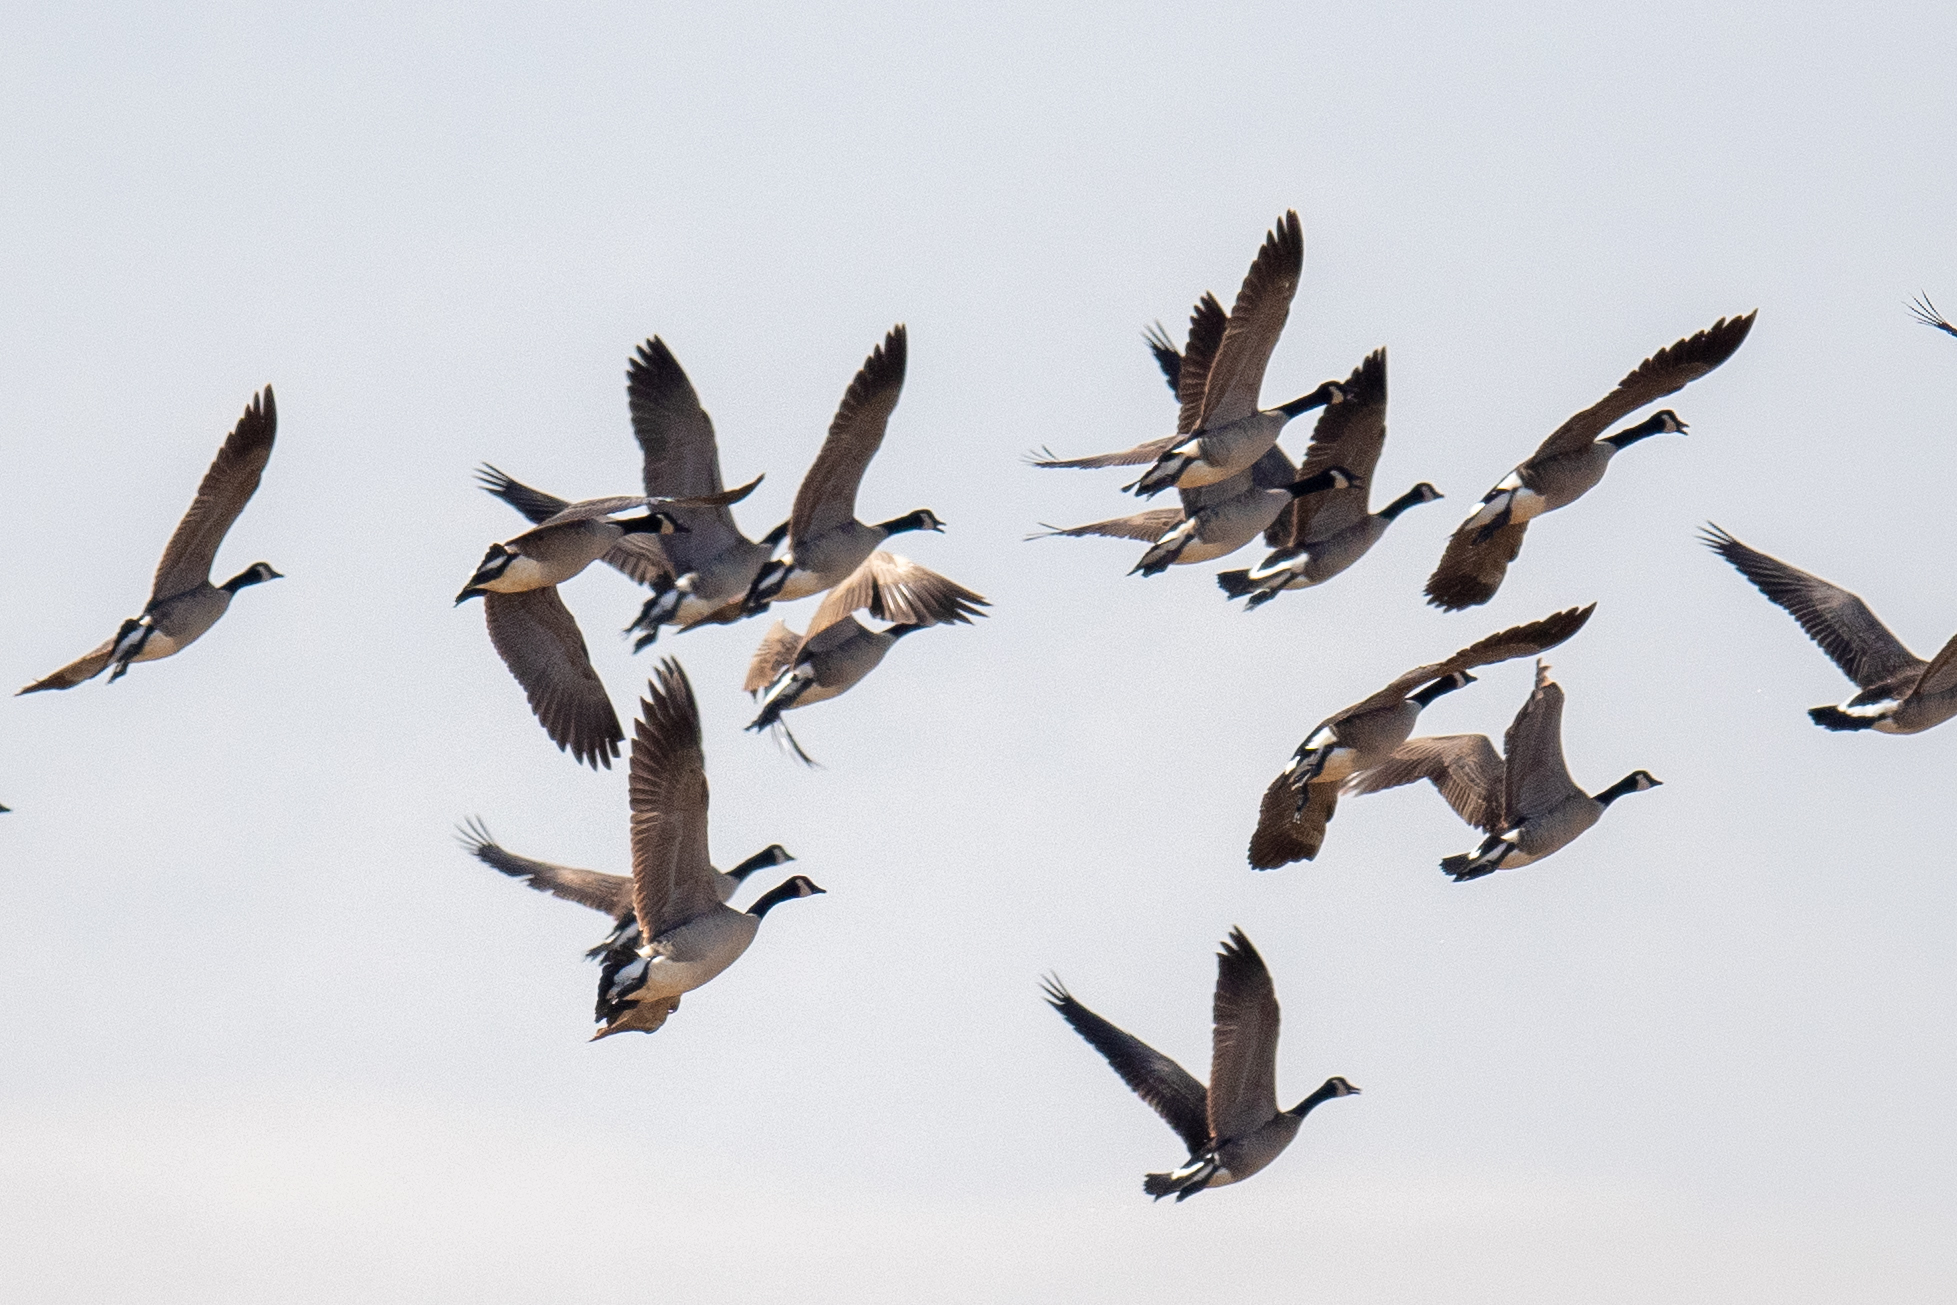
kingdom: Animalia
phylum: Chordata
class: Aves
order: Anseriformes
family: Anatidae
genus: Branta
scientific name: Branta canadensis
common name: Canada goose
